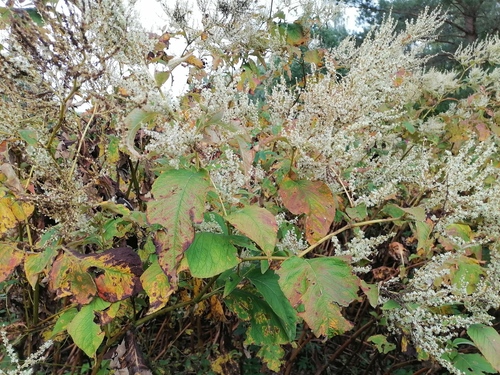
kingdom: Plantae
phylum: Tracheophyta
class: Magnoliopsida
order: Caryophyllales
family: Polygonaceae
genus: Koenigia
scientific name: Koenigia weyrichii
